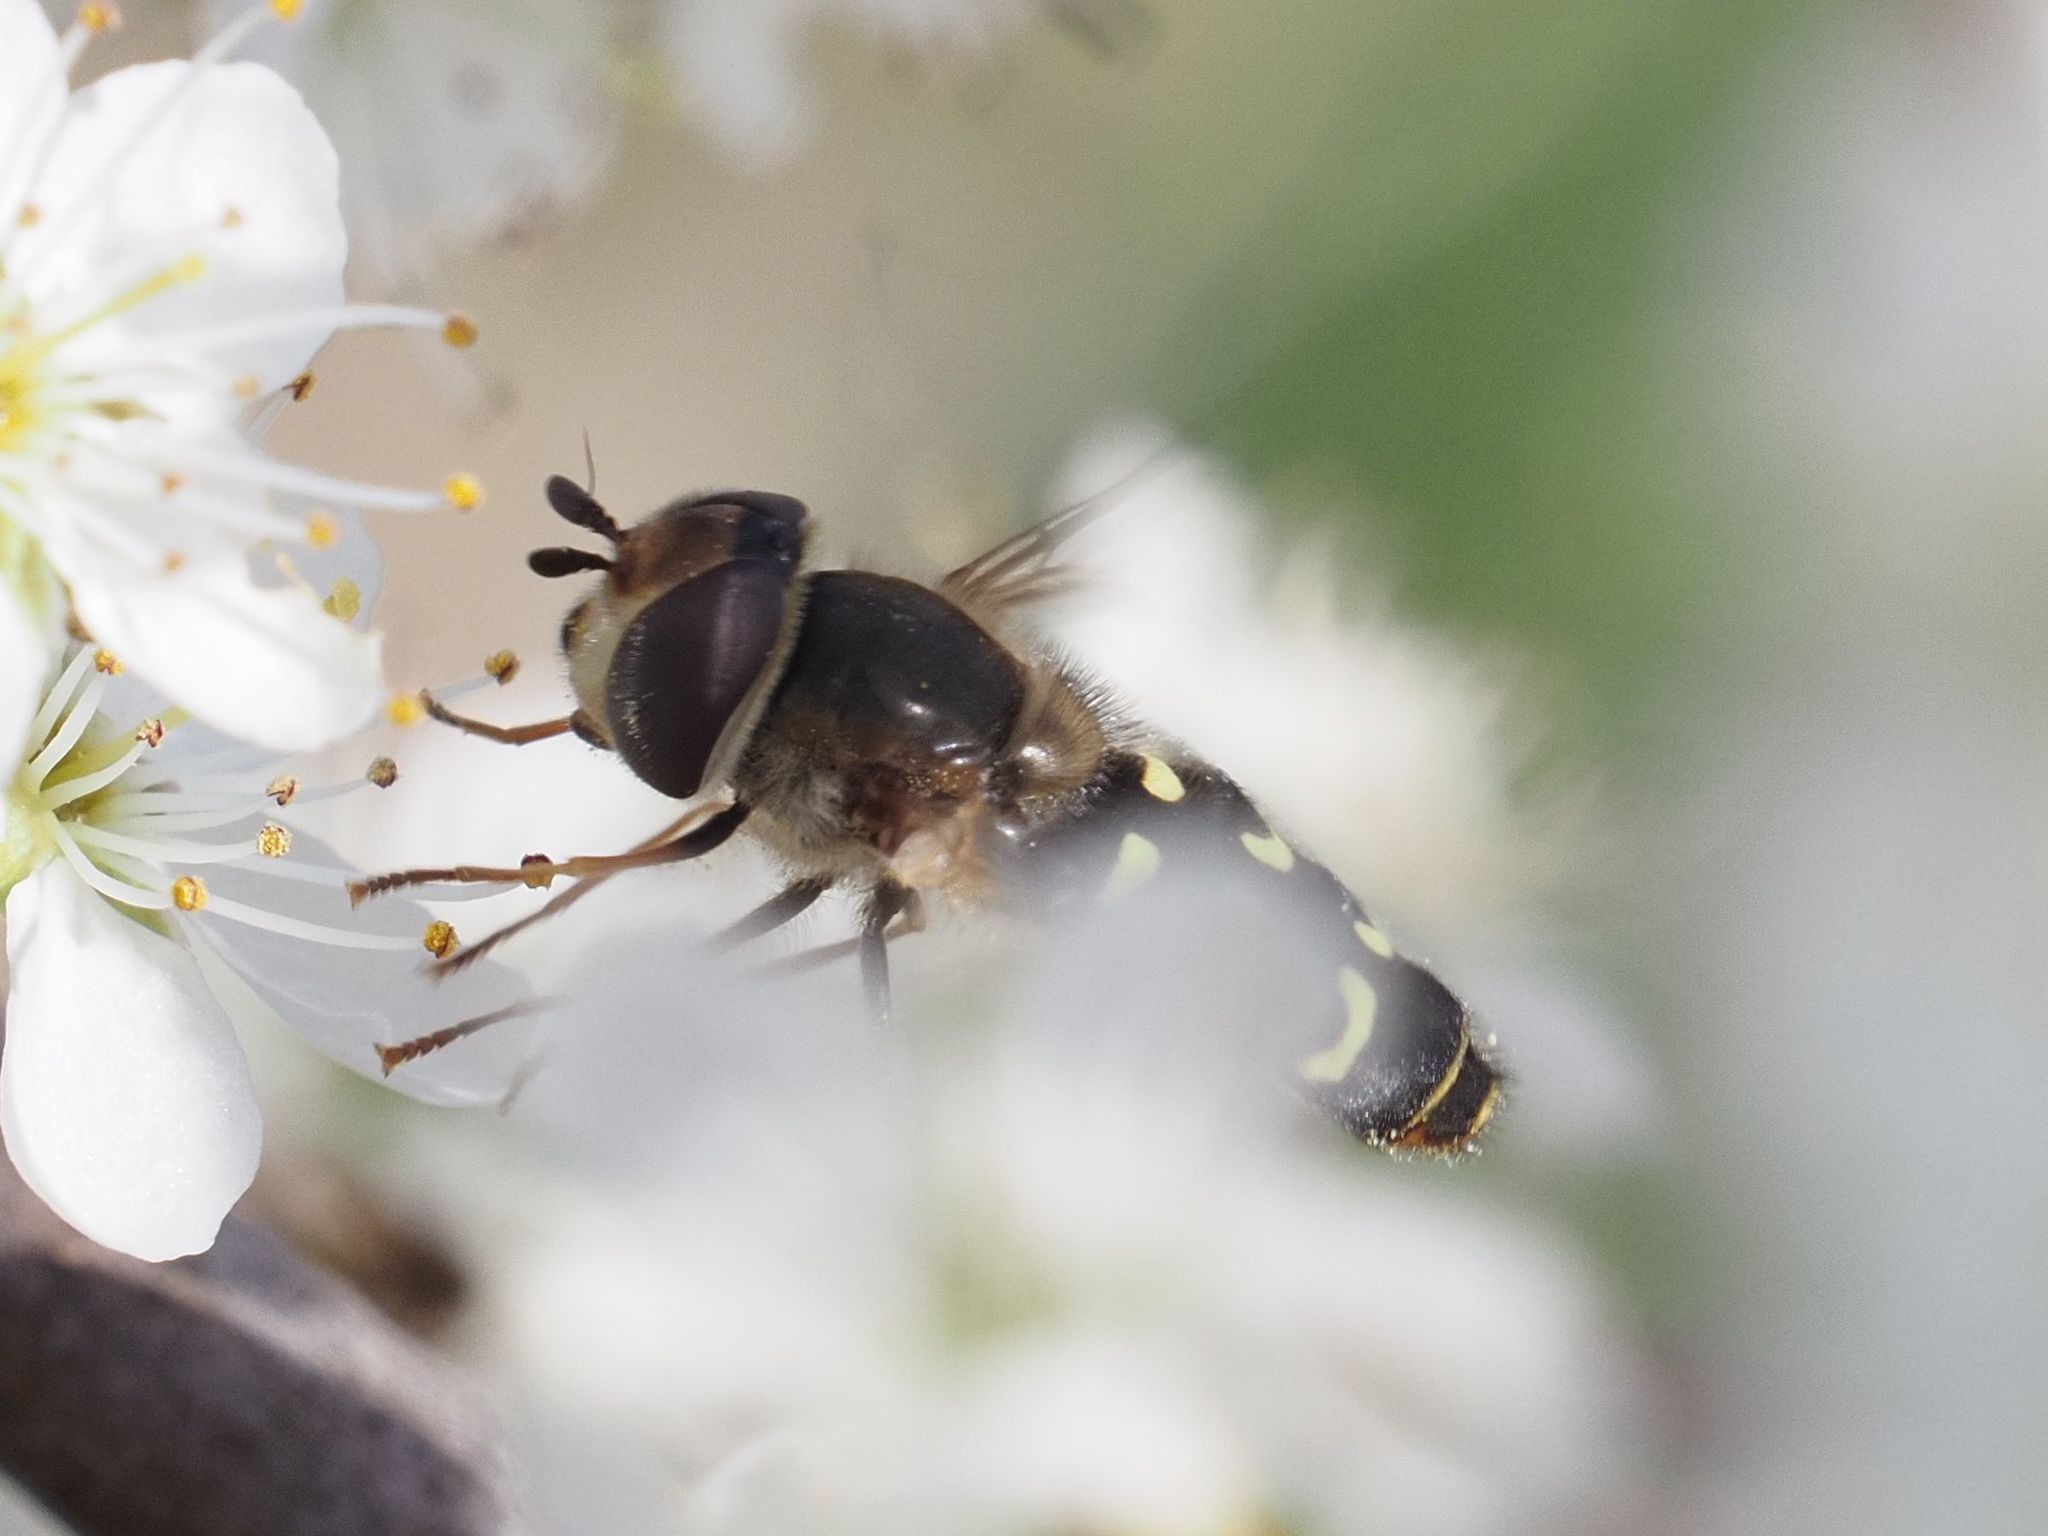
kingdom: Animalia
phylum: Arthropoda
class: Insecta
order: Diptera
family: Syrphidae
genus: Scaeva
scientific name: Scaeva selenitica
